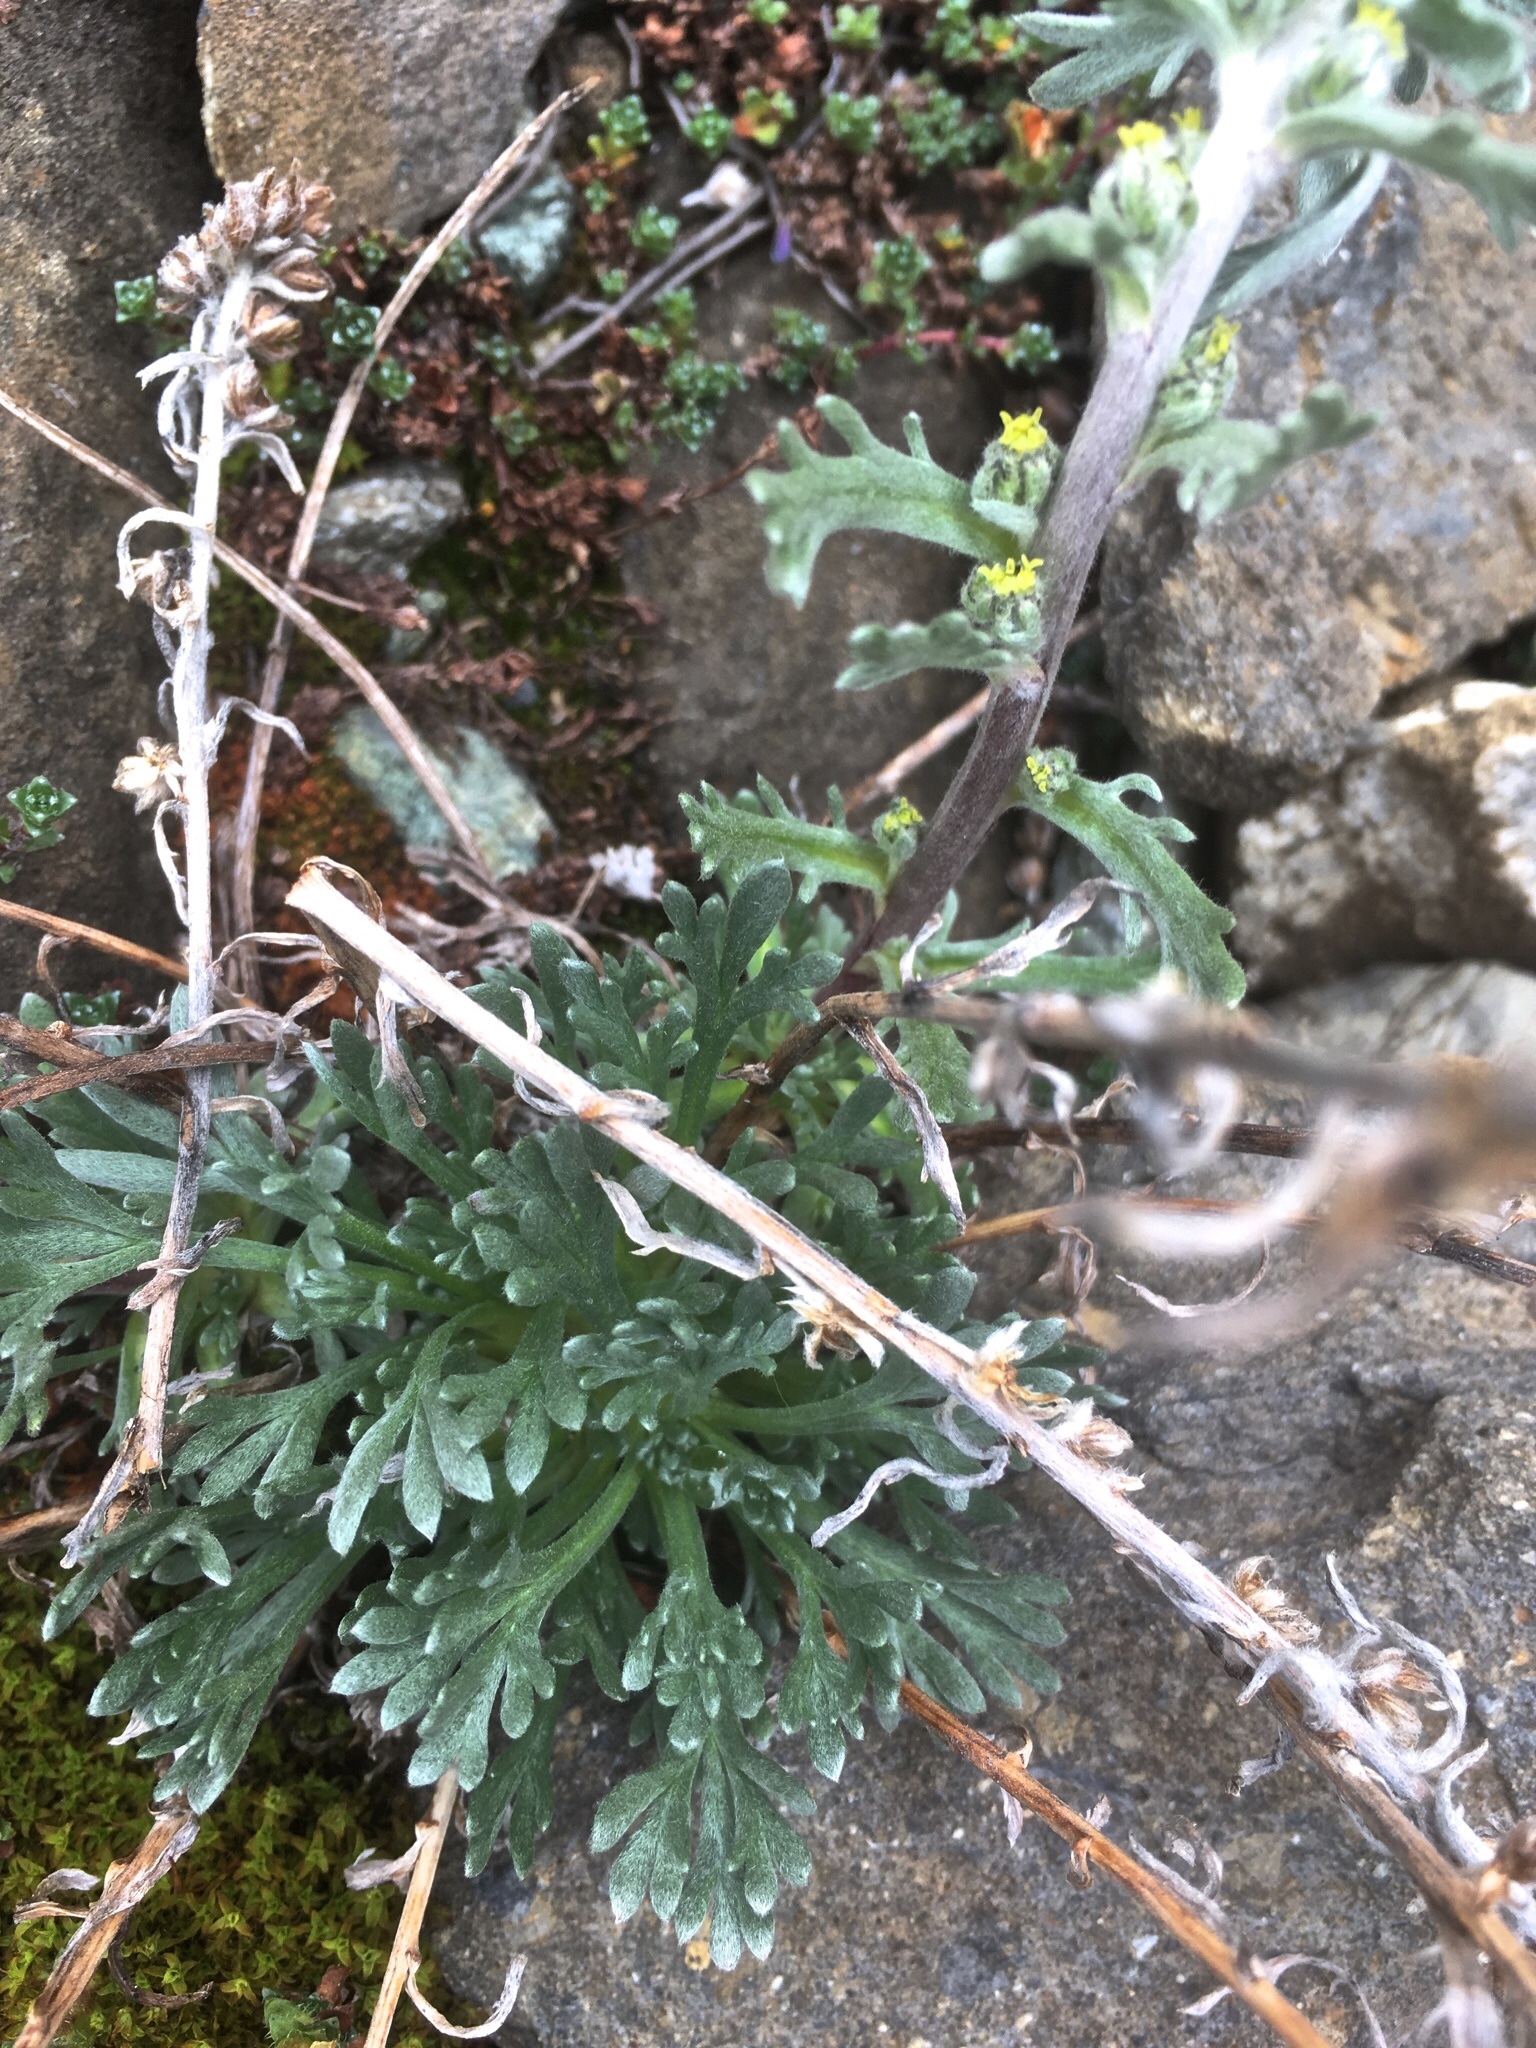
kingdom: Plantae
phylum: Tracheophyta
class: Magnoliopsida
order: Asterales
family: Asteraceae
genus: Artemisia
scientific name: Artemisia genipi
